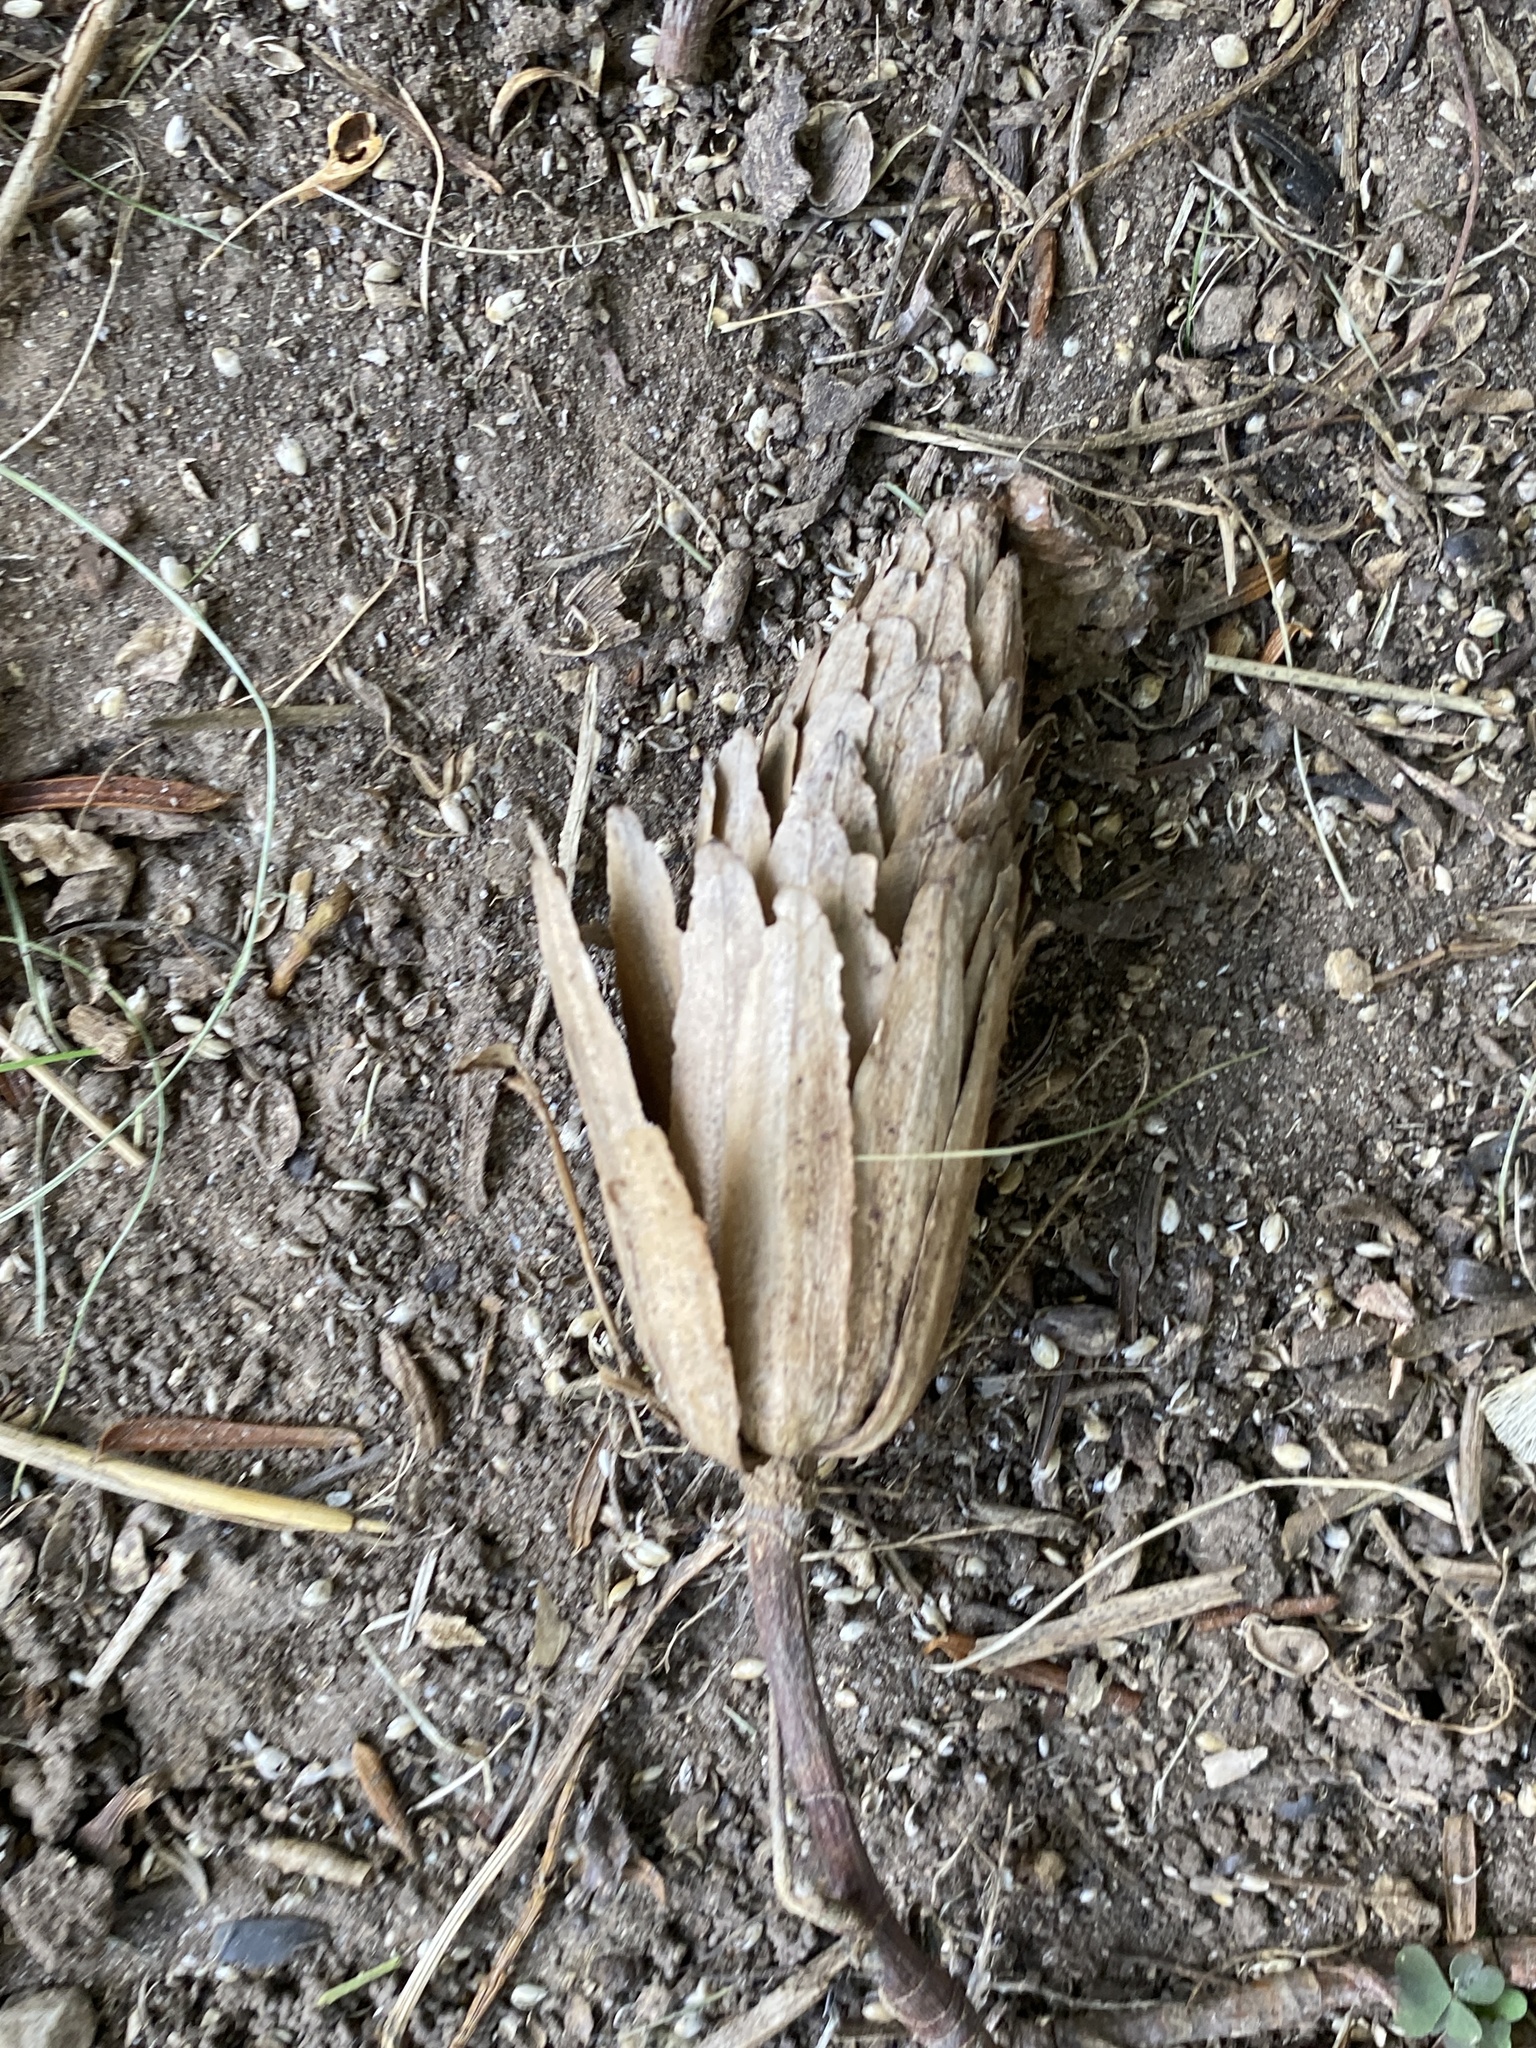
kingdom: Plantae
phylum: Tracheophyta
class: Magnoliopsida
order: Magnoliales
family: Magnoliaceae
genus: Liriodendron
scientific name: Liriodendron tulipifera
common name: Tulip tree
